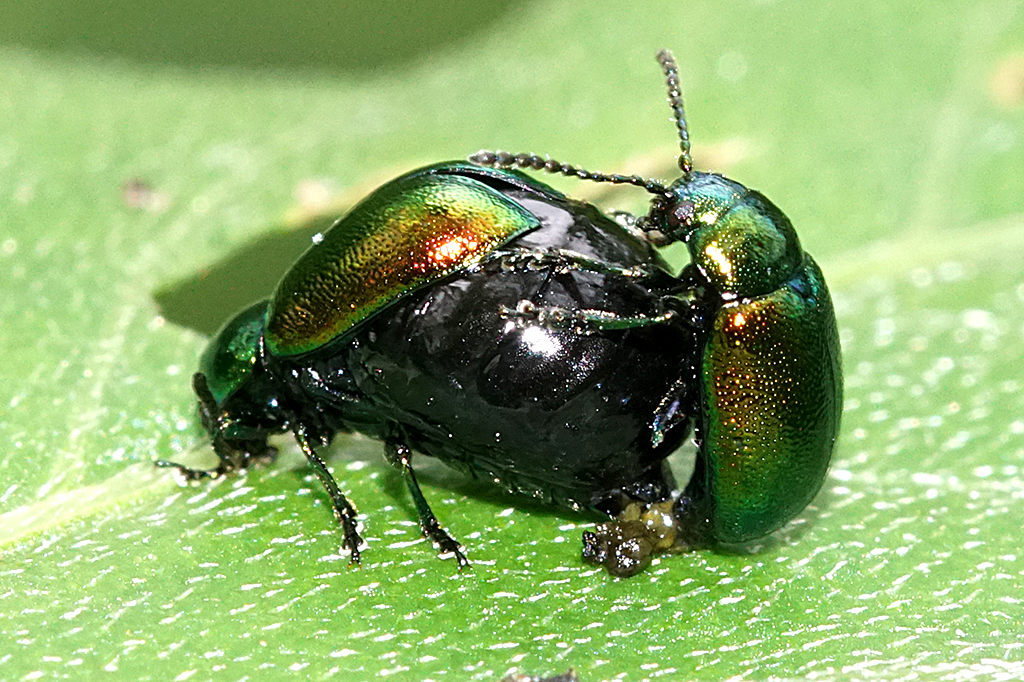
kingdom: Animalia
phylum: Arthropoda
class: Insecta
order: Coleoptera
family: Chrysomelidae
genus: Gastrophysa
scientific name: Gastrophysa viridula
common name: Green dock beetle
